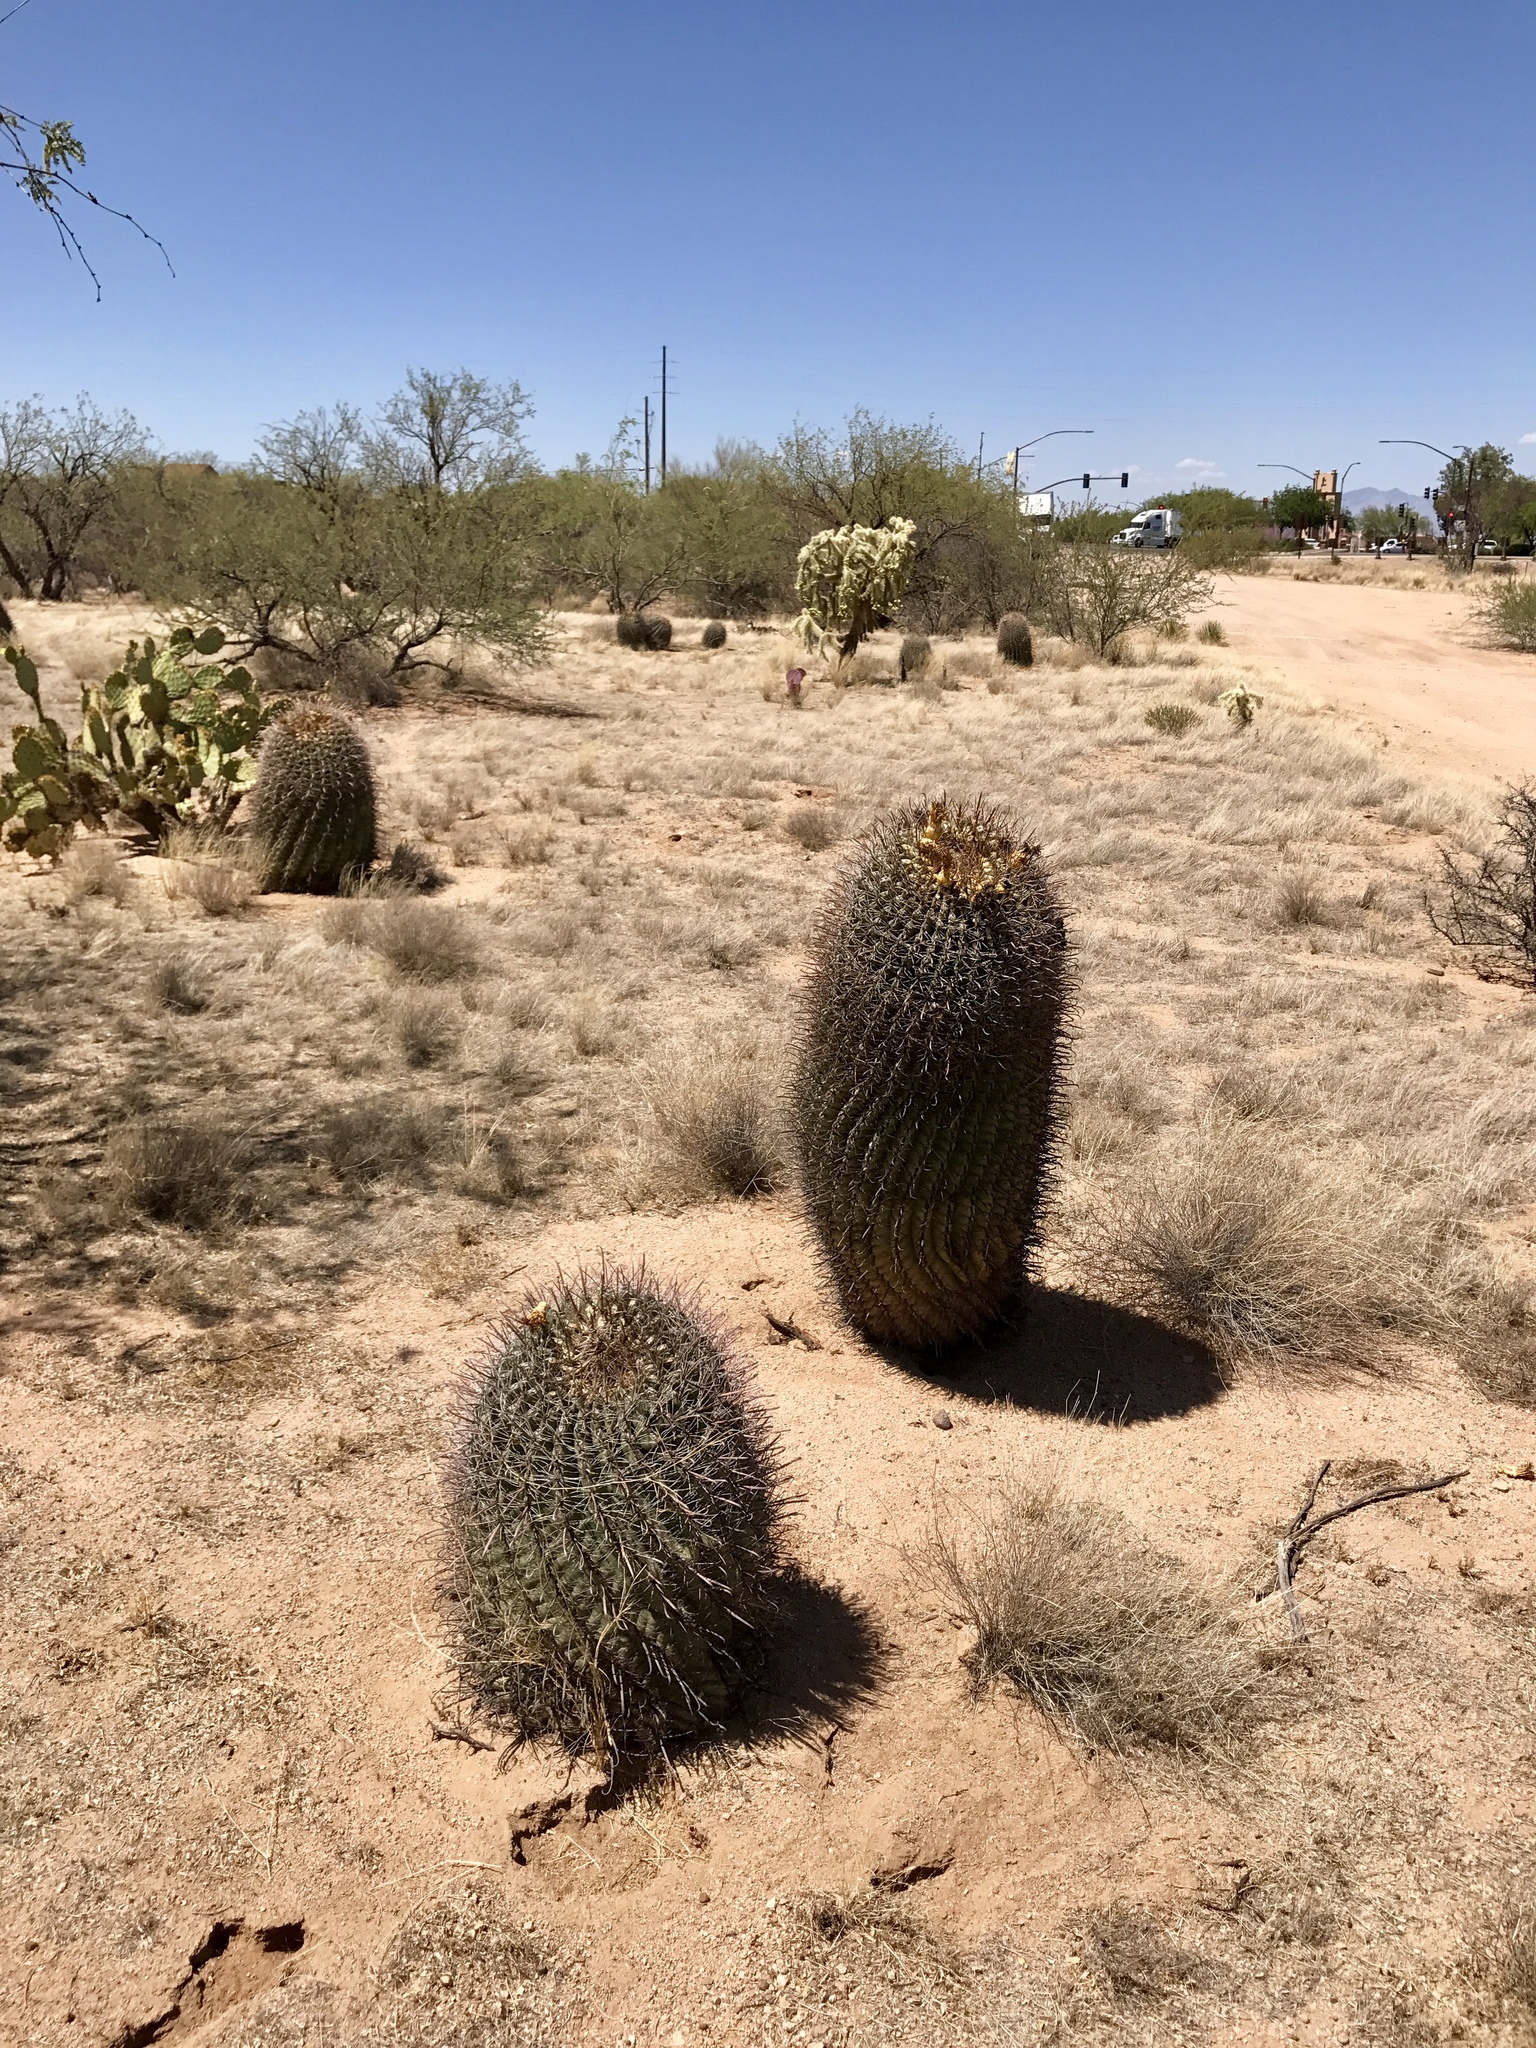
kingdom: Plantae
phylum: Tracheophyta
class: Magnoliopsida
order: Caryophyllales
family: Cactaceae
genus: Ferocactus
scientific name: Ferocactus wislizeni
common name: Candy barrel cactus
